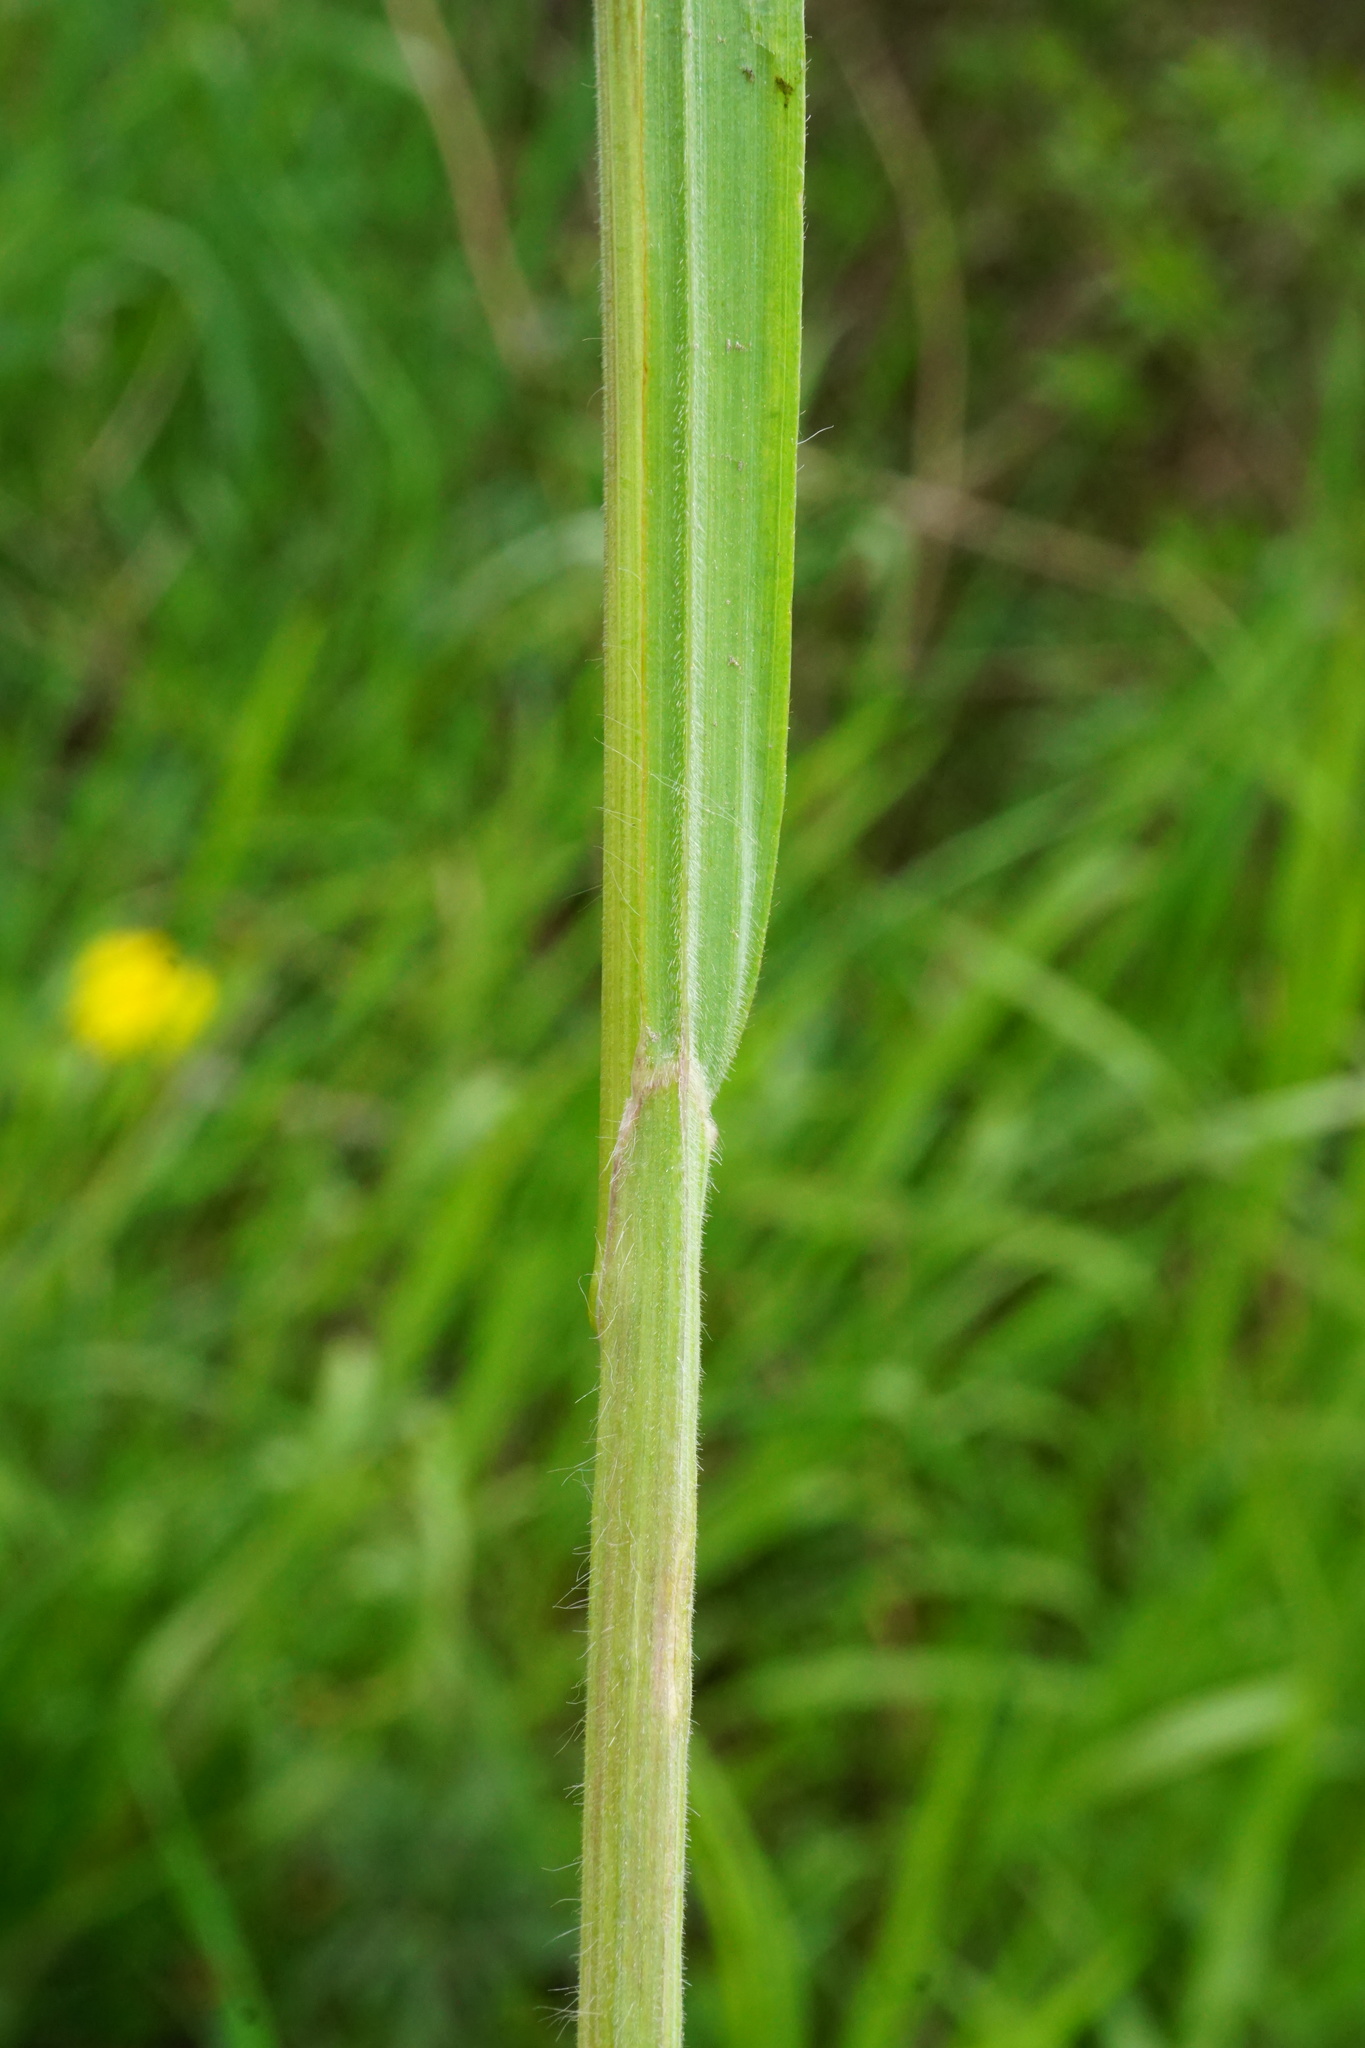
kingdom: Plantae
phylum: Tracheophyta
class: Liliopsida
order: Poales
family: Poaceae
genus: Bromus
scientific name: Bromus tectorum
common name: Cheatgrass
